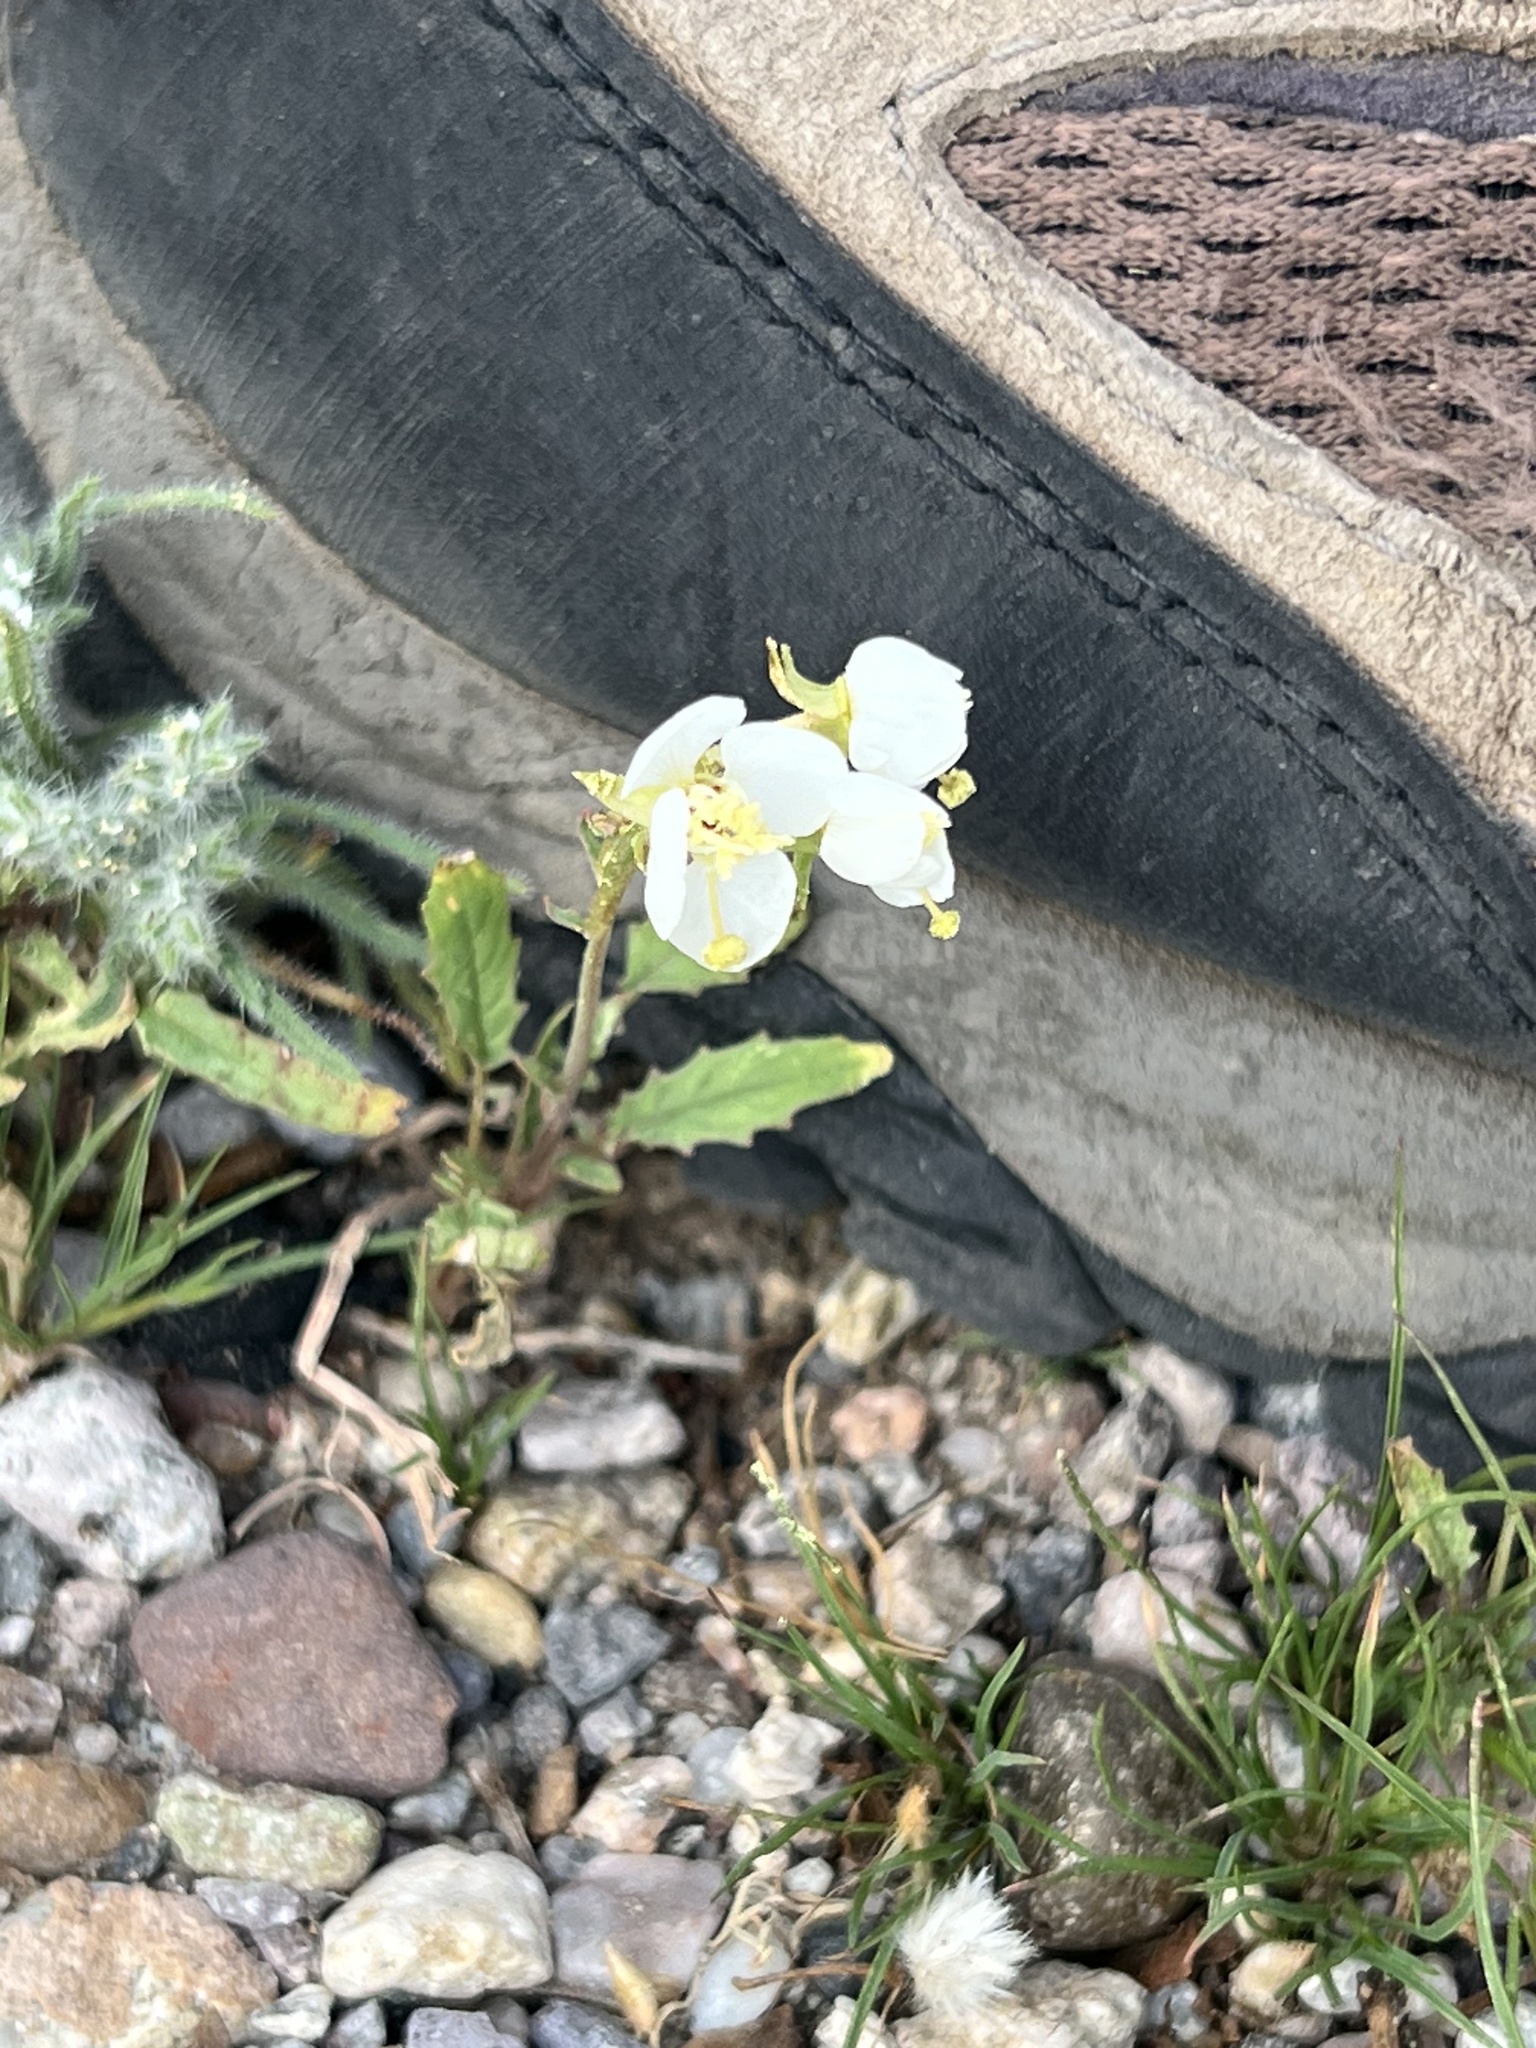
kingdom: Plantae
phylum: Tracheophyta
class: Magnoliopsida
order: Myrtales
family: Onagraceae
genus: Chylismia
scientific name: Chylismia claviformis
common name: Browneyes
